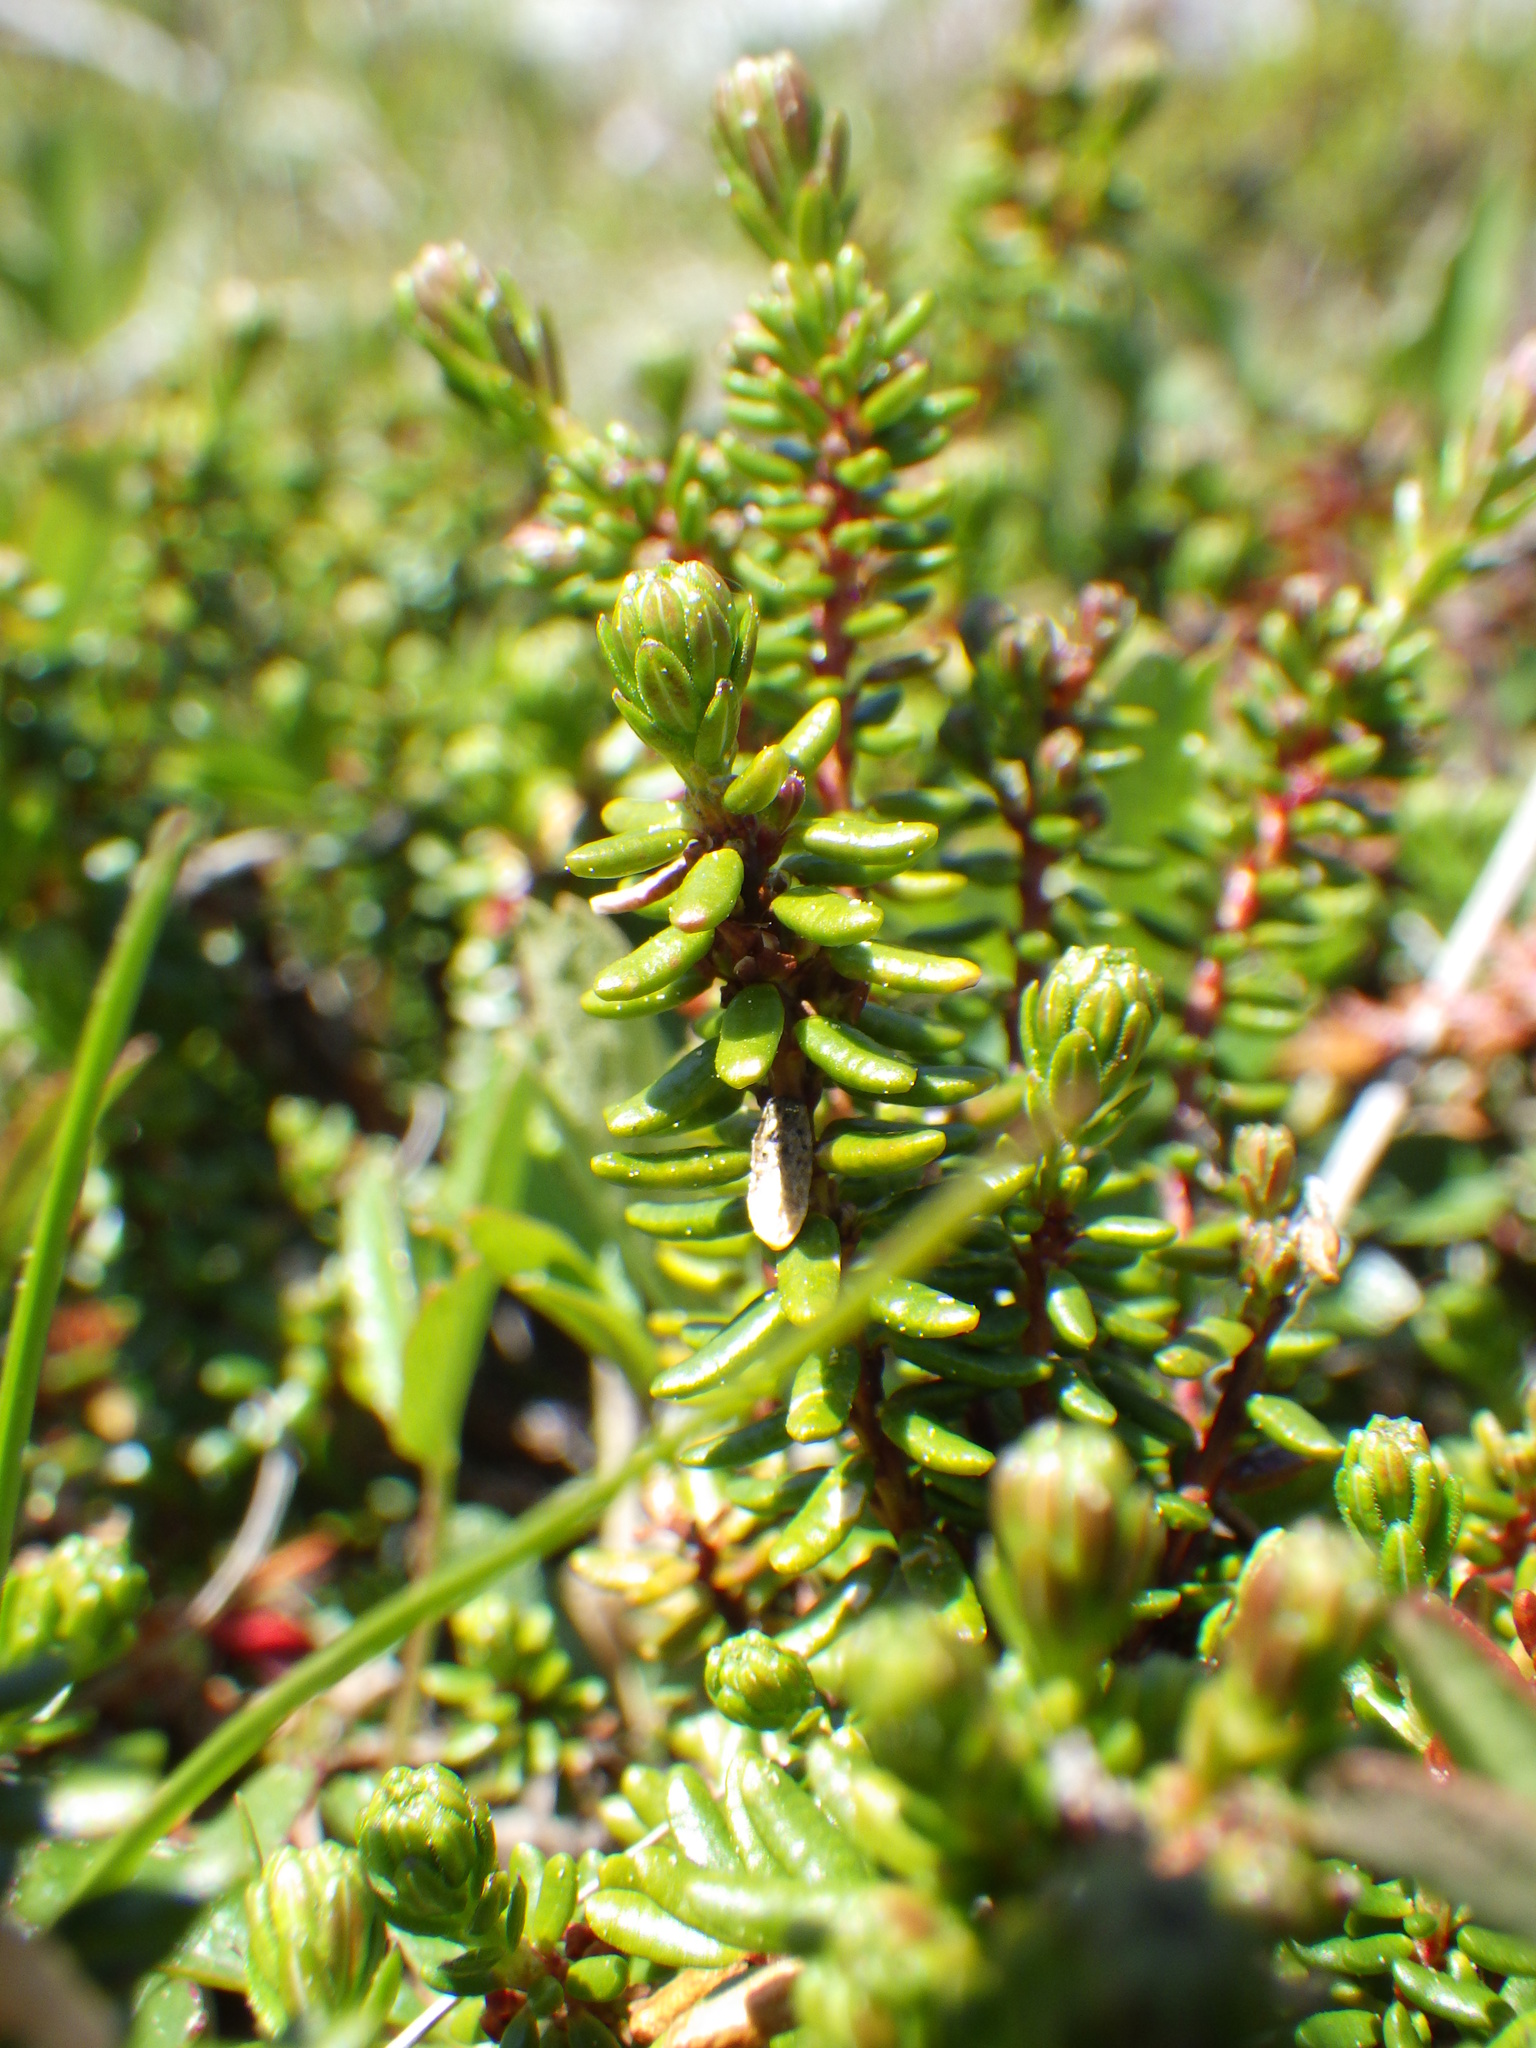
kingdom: Plantae
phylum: Tracheophyta
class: Magnoliopsida
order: Ericales
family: Ericaceae
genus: Empetrum
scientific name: Empetrum nigrum
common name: Black crowberry
